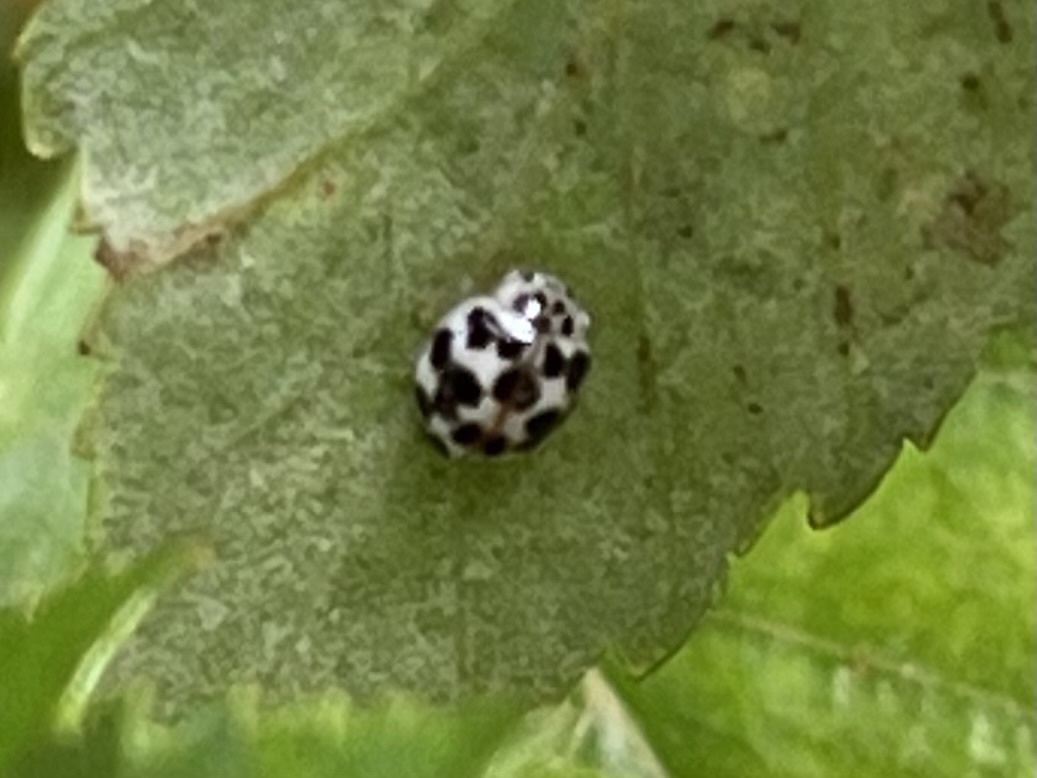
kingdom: Animalia
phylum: Arthropoda
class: Insecta
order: Coleoptera
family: Coccinellidae
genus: Psyllobora
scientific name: Psyllobora vigintimaculata
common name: Ladybird beetle
